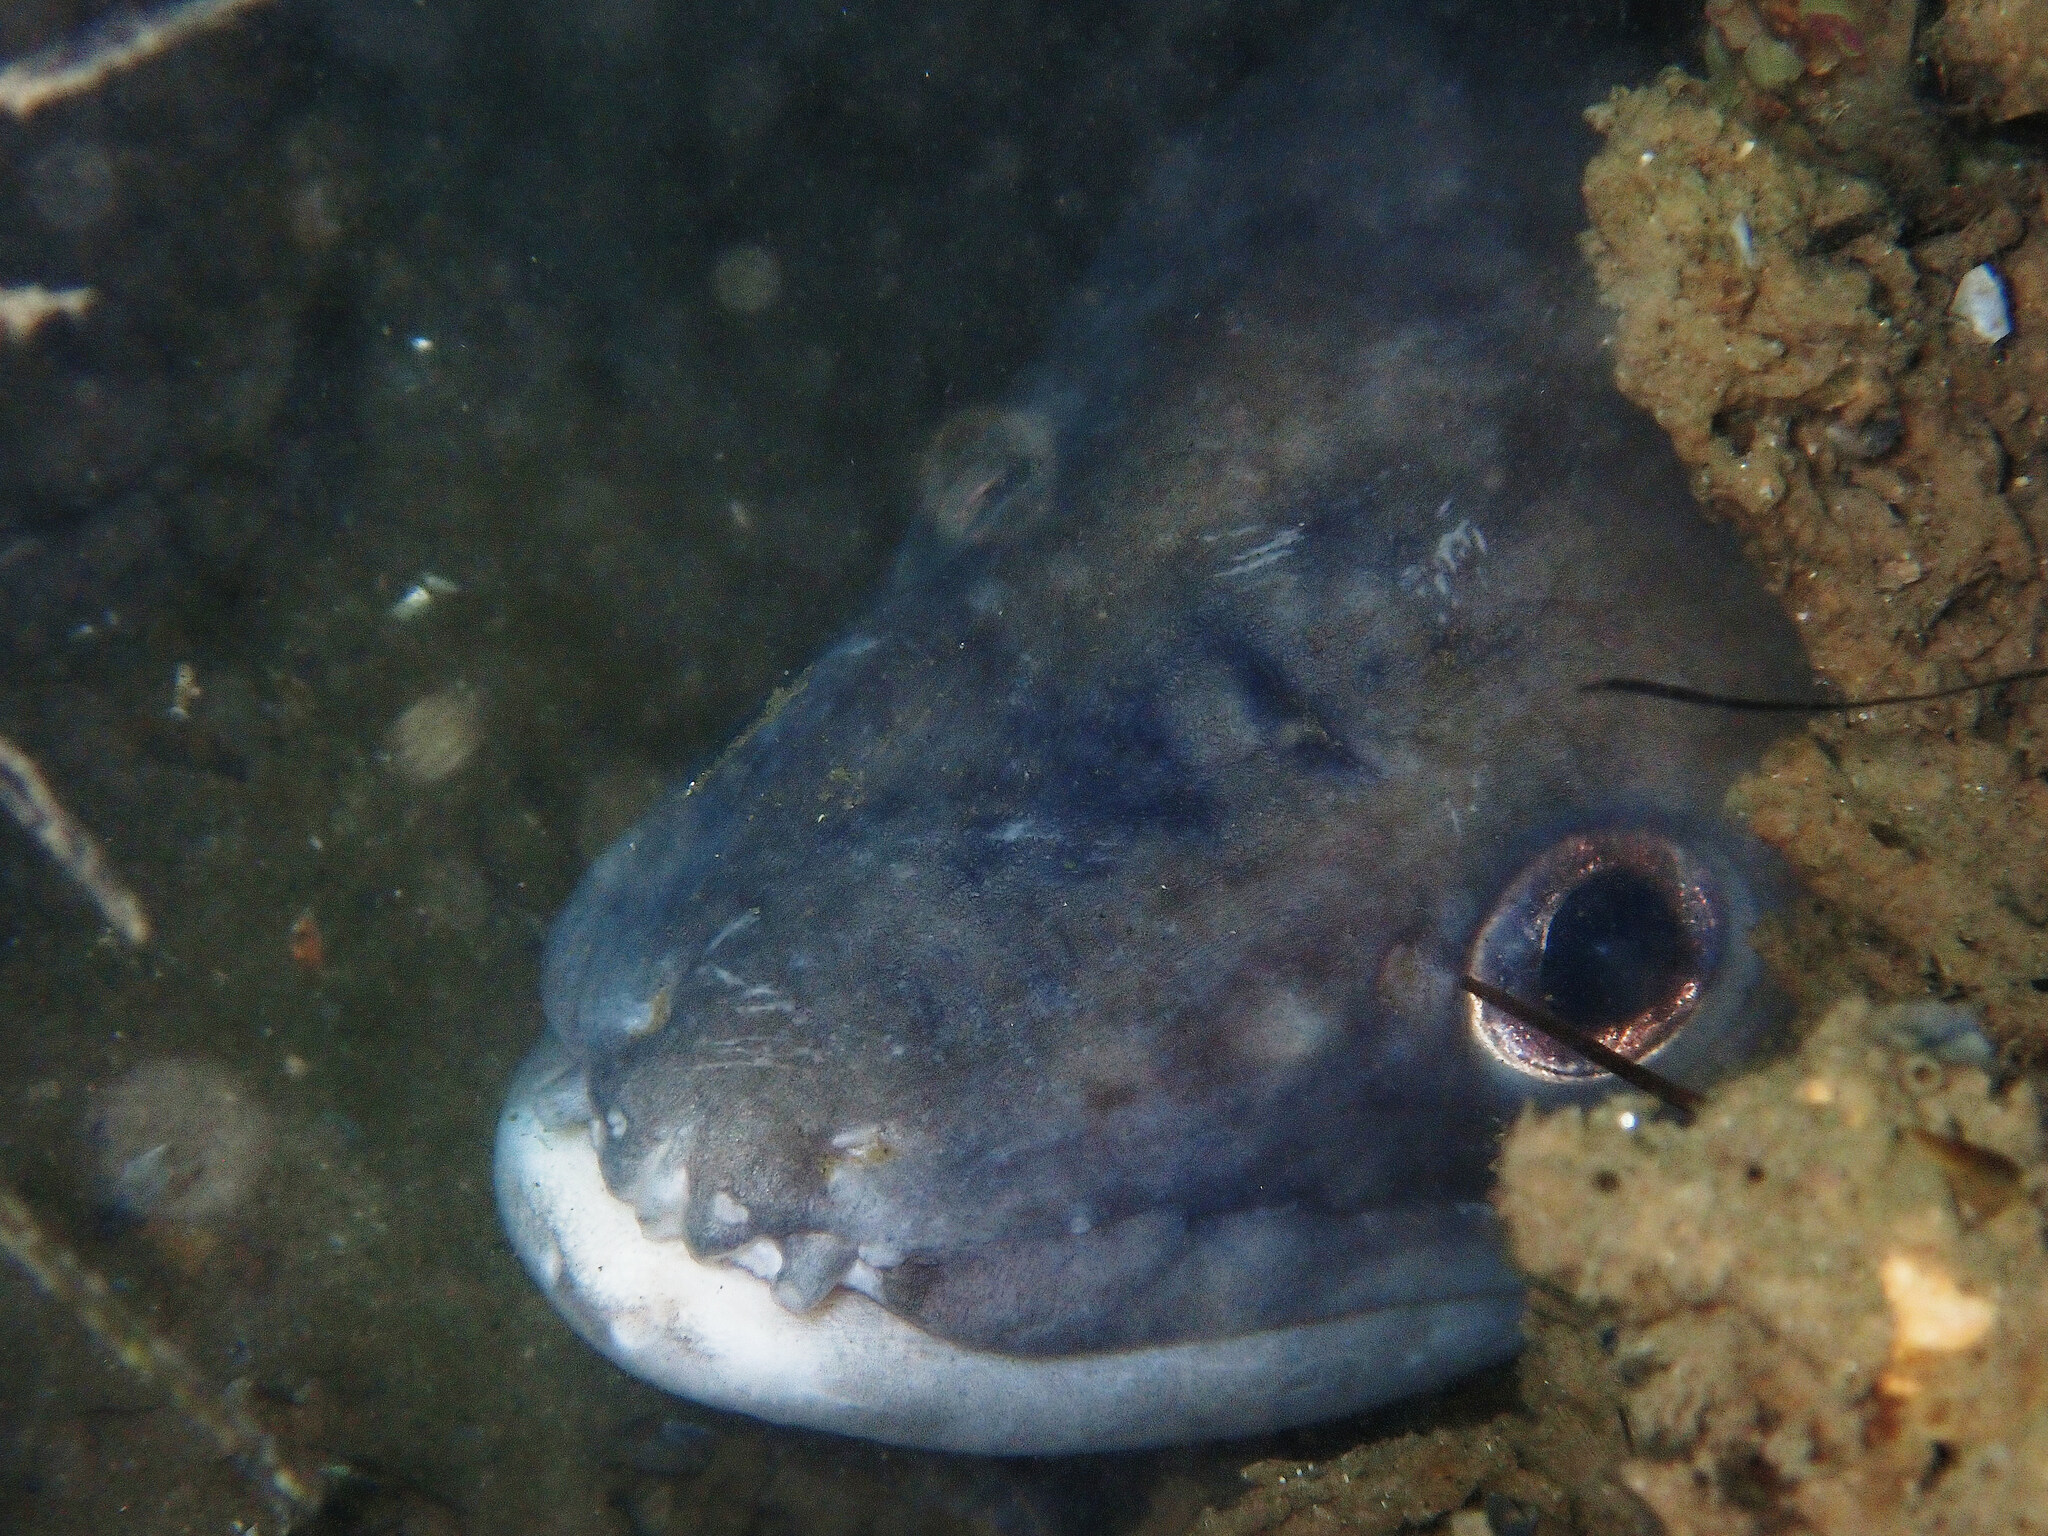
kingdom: Animalia
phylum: Chordata
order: Anguilliformes
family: Congridae
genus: Conger
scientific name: Conger conger
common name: Conger eel
